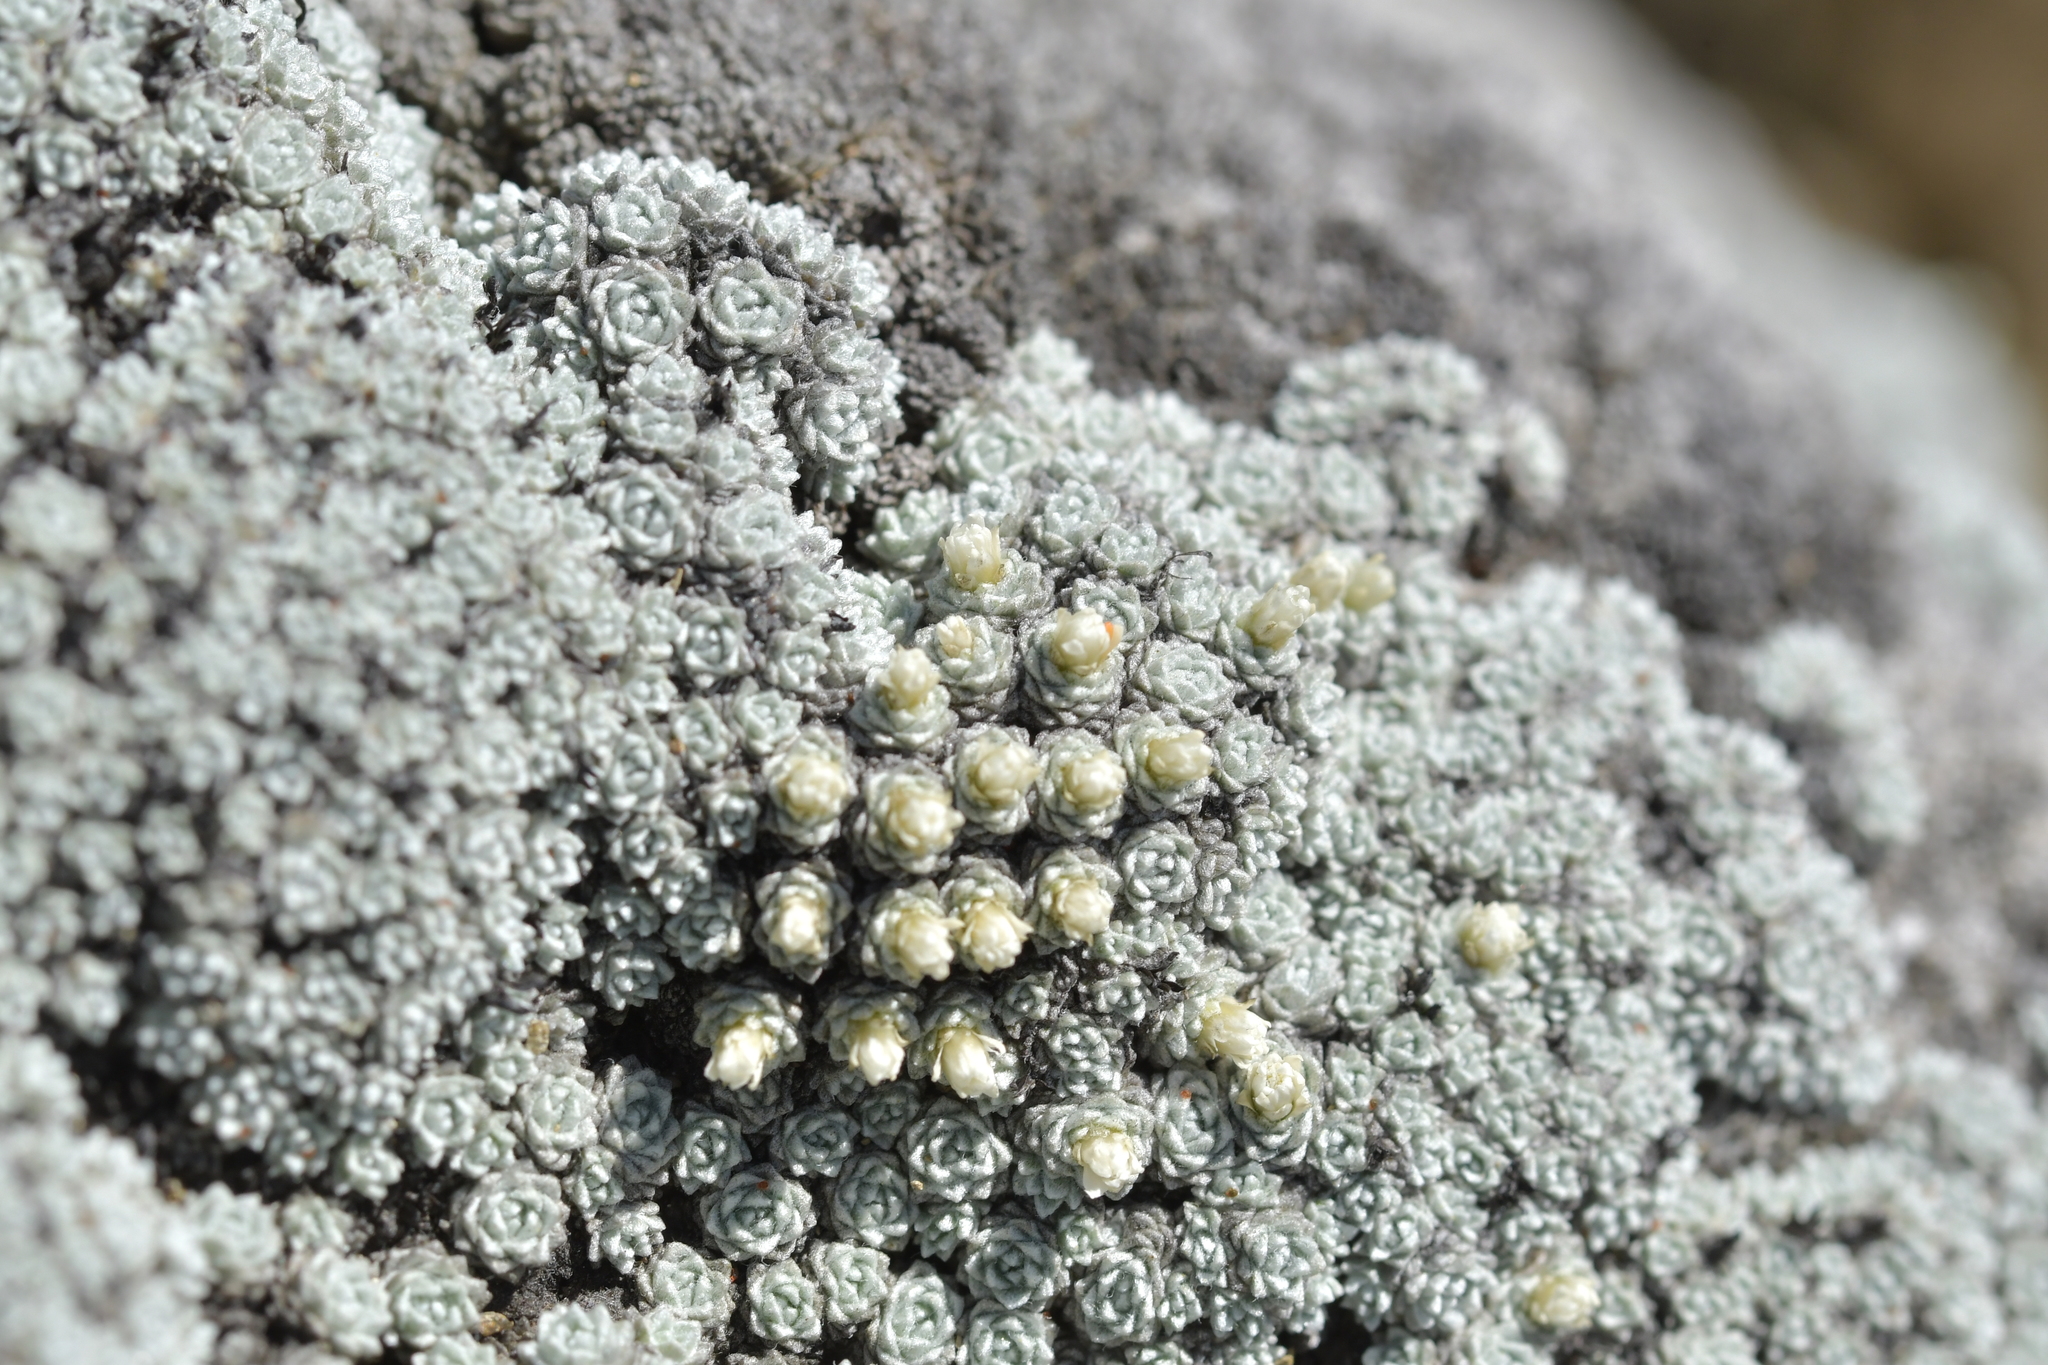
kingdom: Plantae
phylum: Tracheophyta
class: Magnoliopsida
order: Asterales
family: Asteraceae
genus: Raoulia
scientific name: Raoulia bryoides
